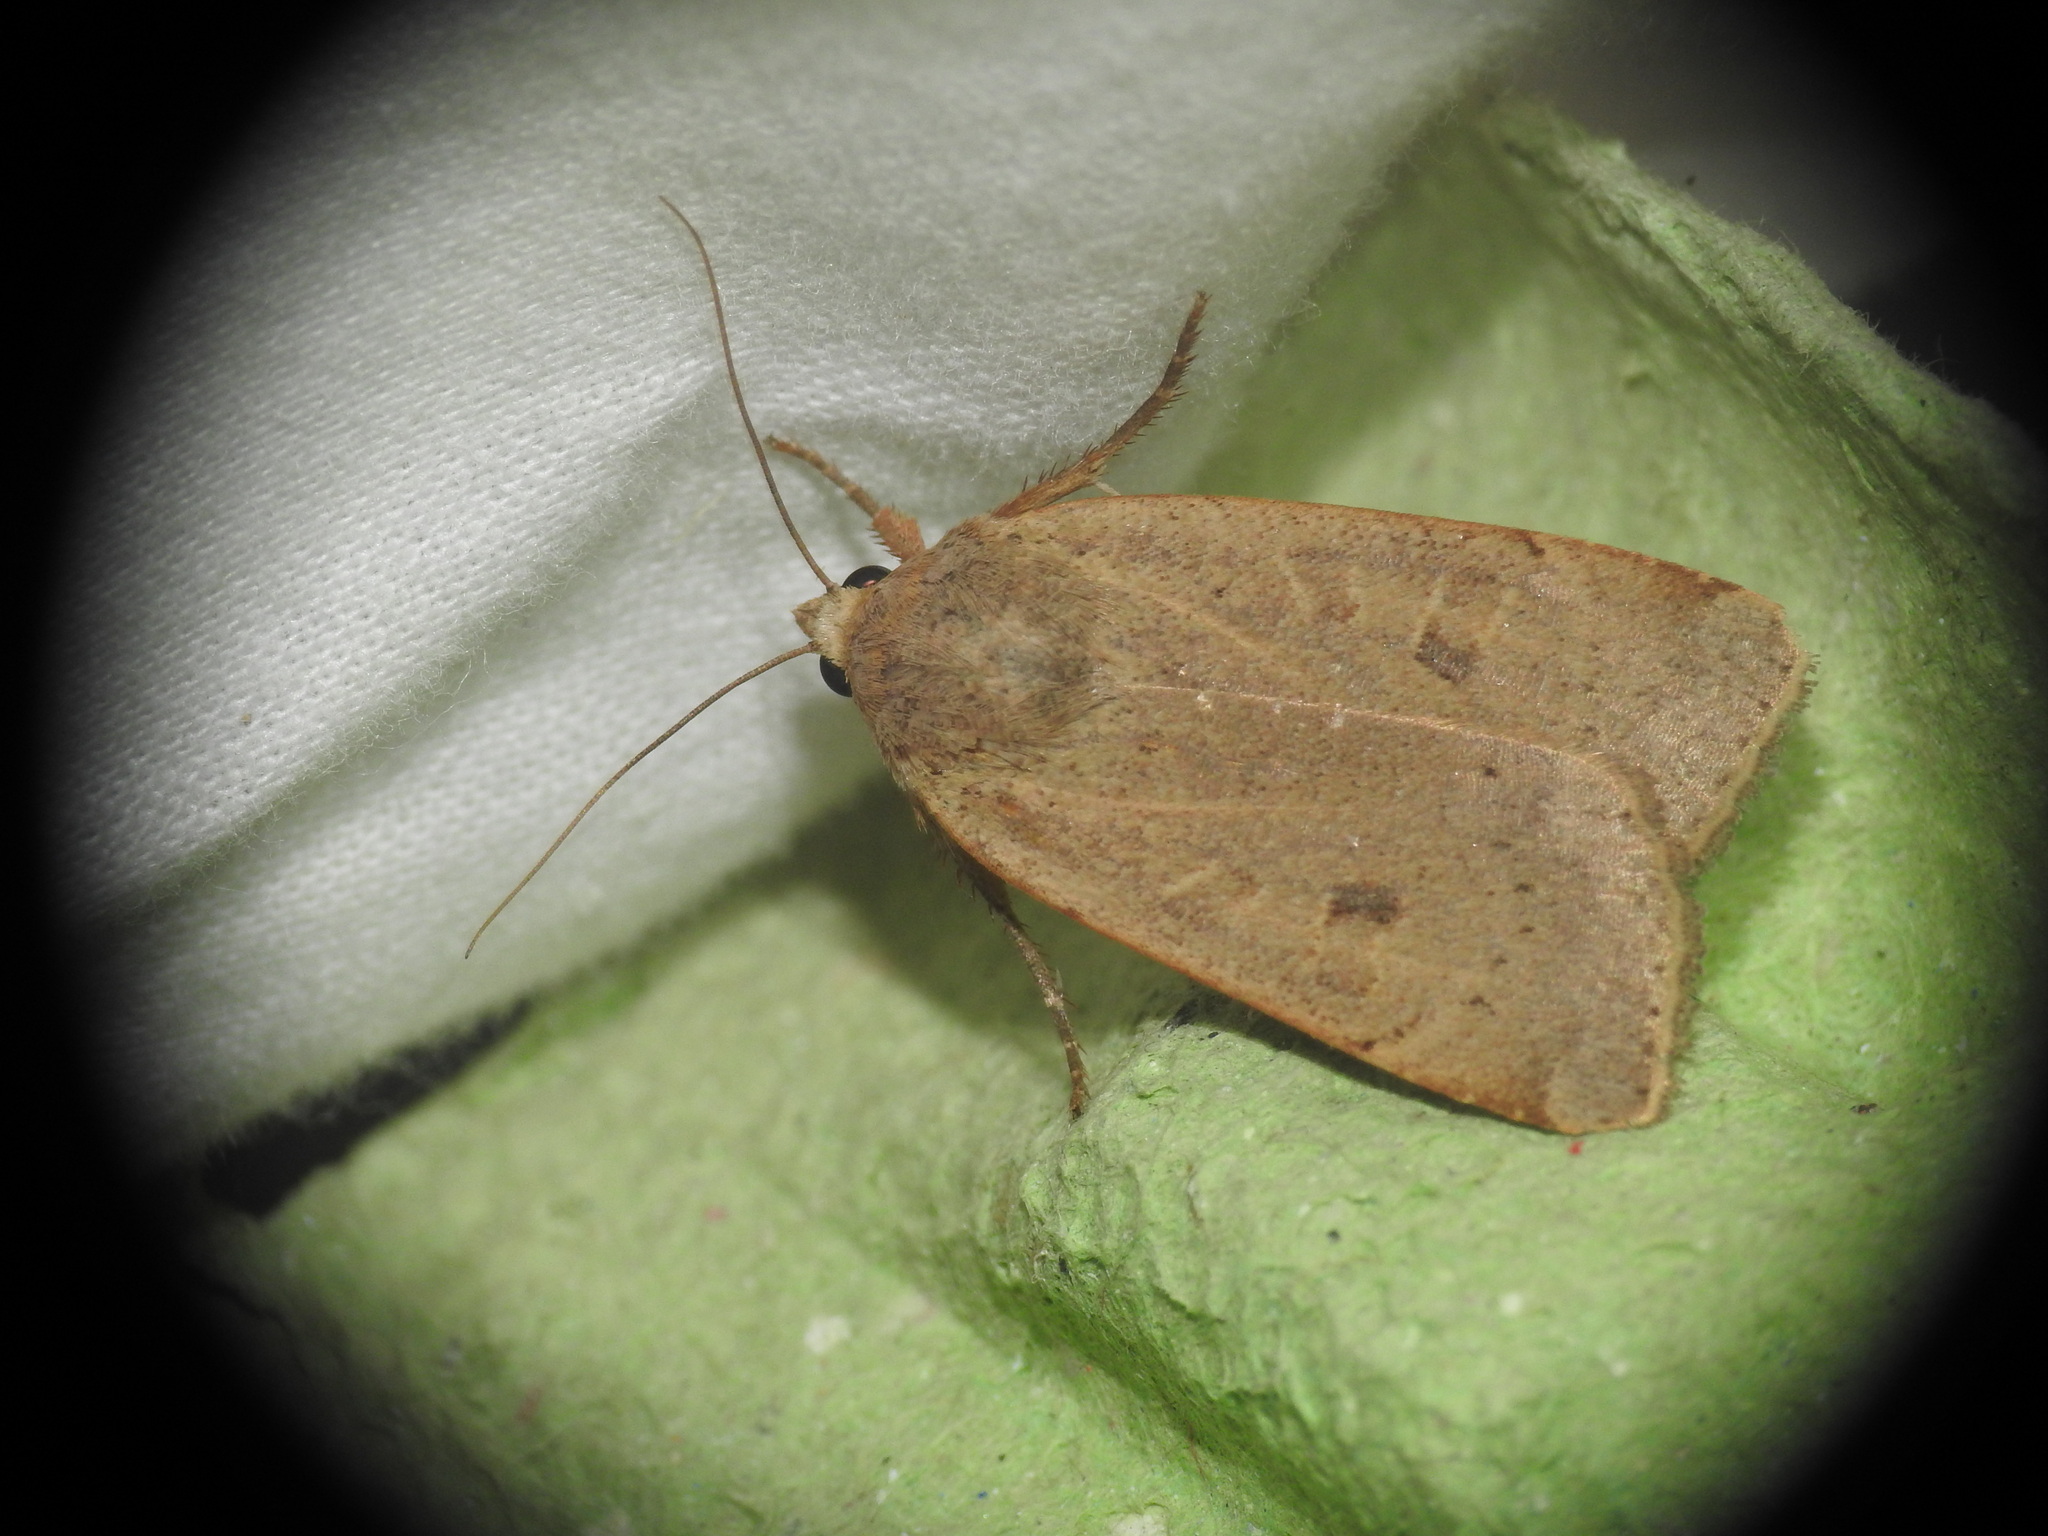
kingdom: Animalia
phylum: Arthropoda
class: Insecta
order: Lepidoptera
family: Noctuidae
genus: Noctua
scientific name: Noctua comes
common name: Lesser yellow underwing
